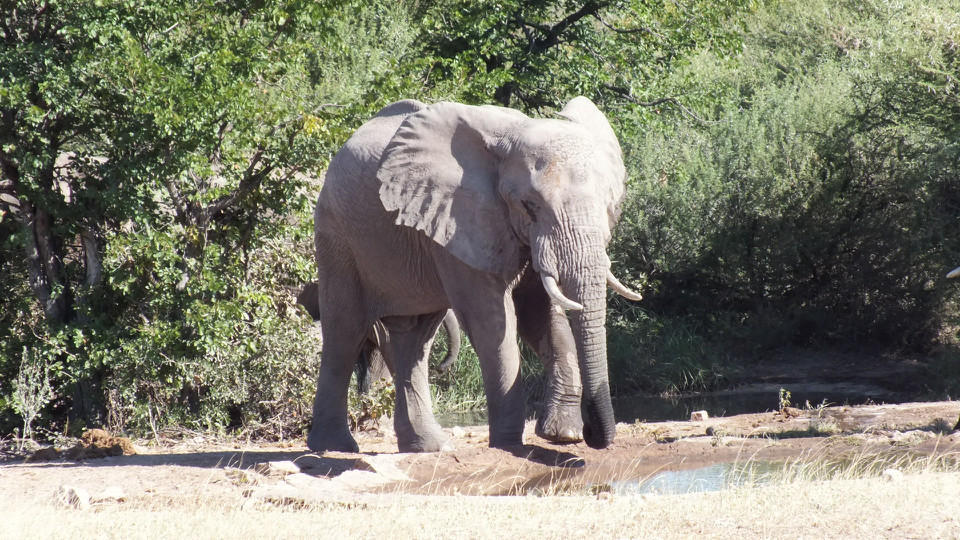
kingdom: Animalia
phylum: Chordata
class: Mammalia
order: Proboscidea
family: Elephantidae
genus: Loxodonta
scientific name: Loxodonta africana
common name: African elephant
